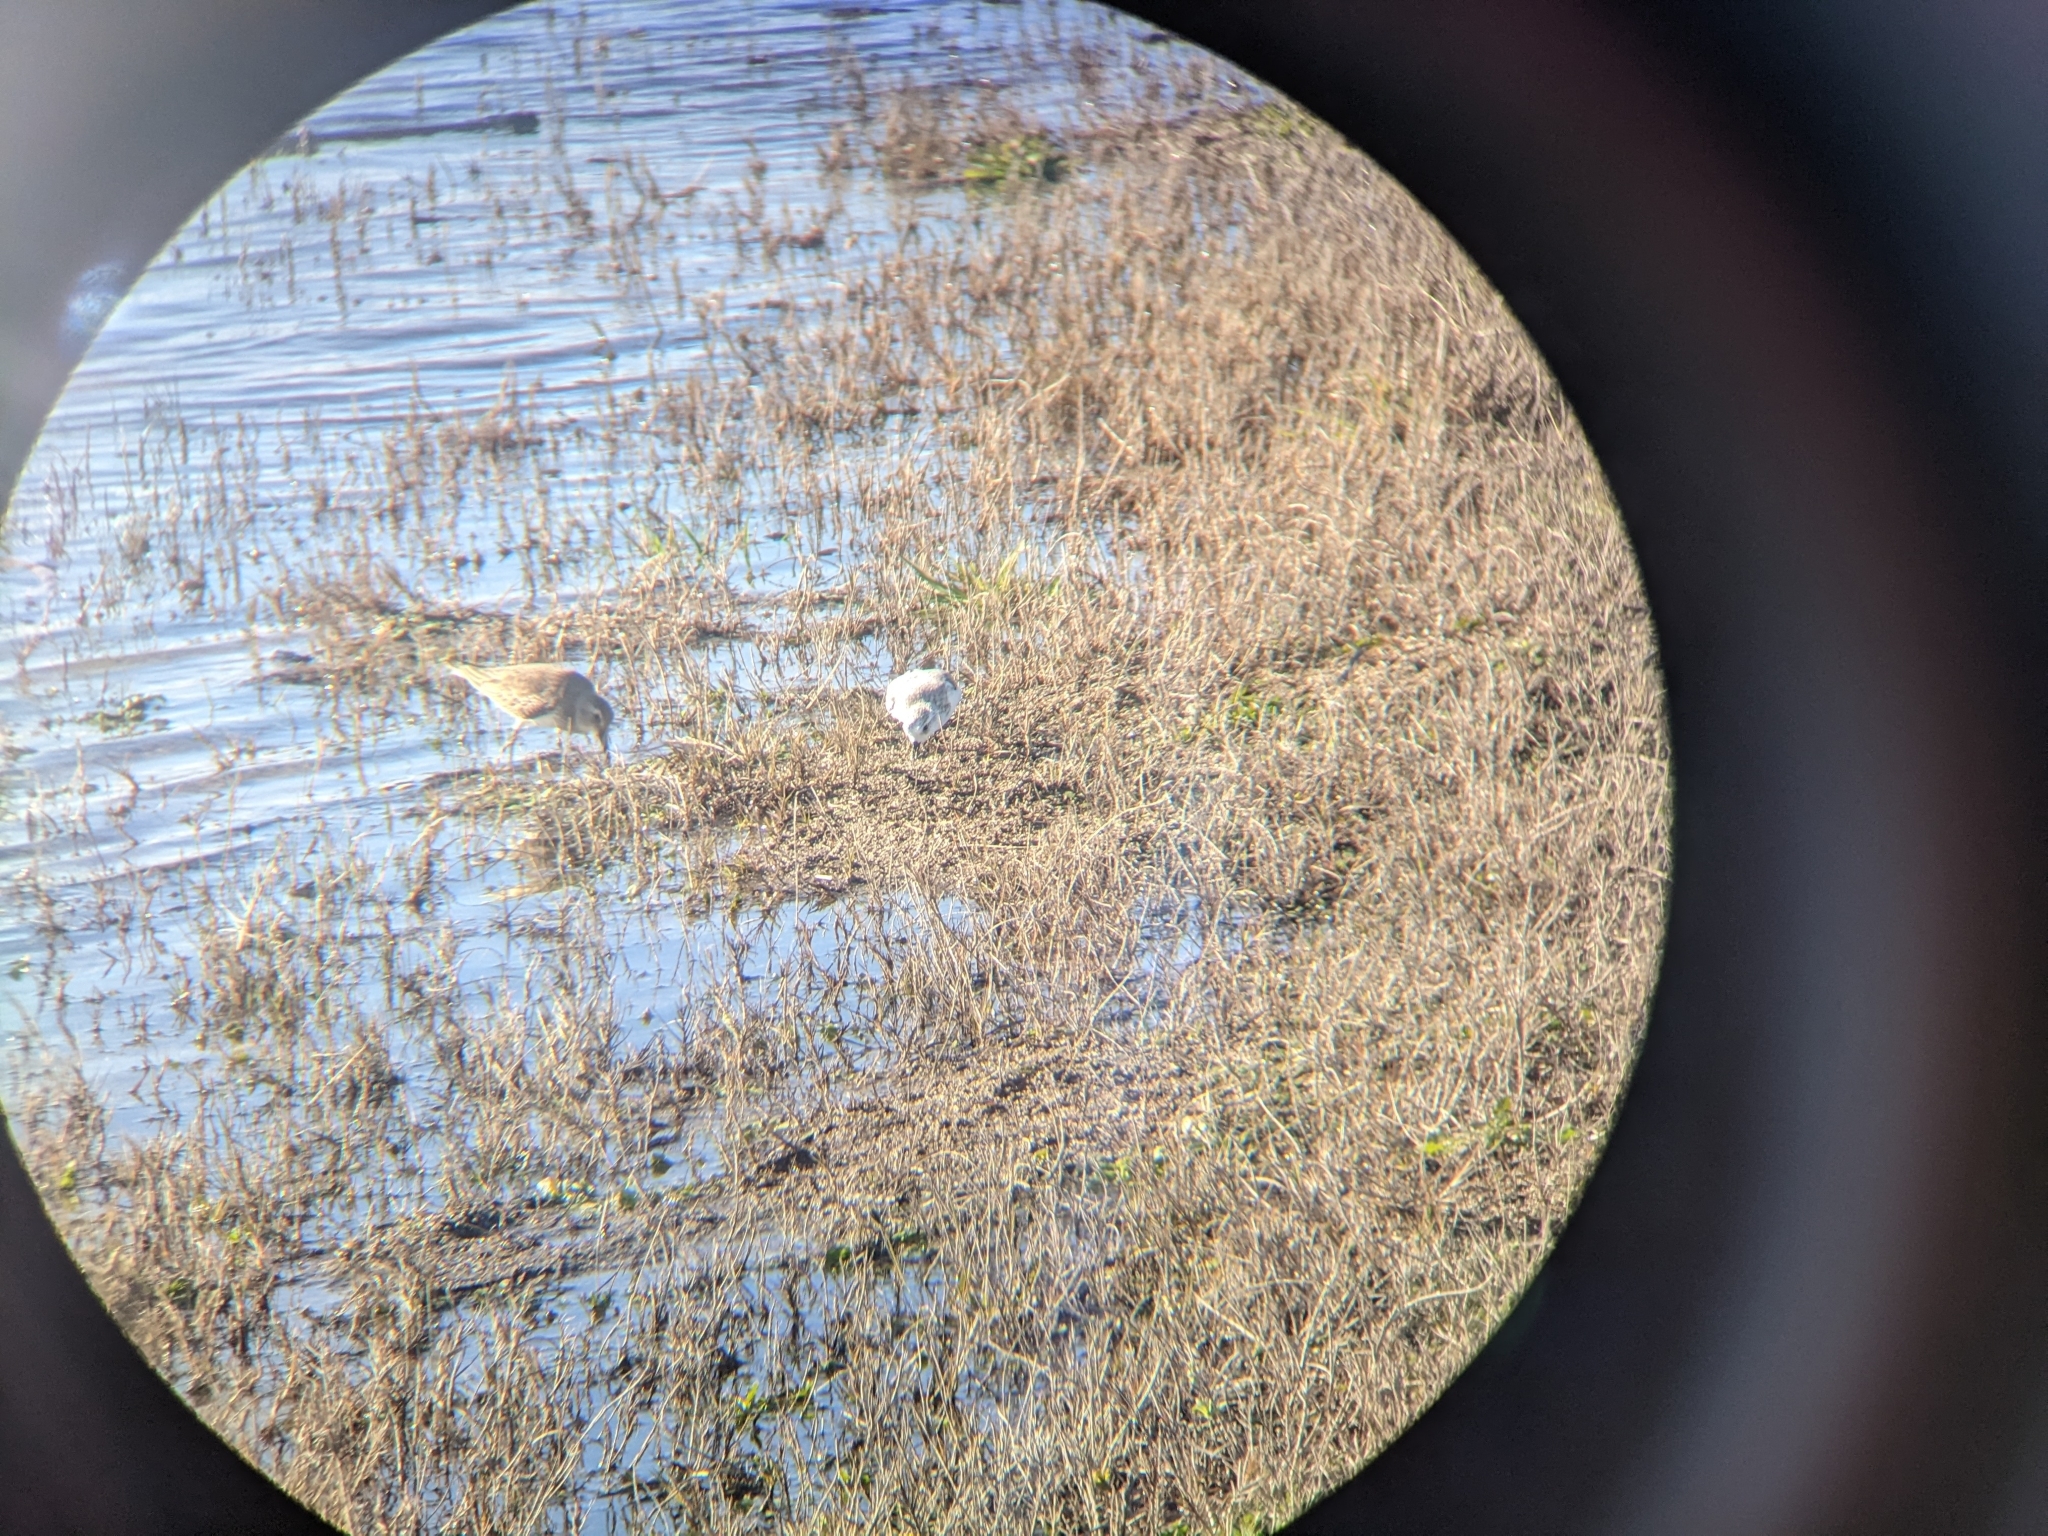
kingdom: Animalia
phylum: Chordata
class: Aves
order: Charadriiformes
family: Scolopacidae
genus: Calidris
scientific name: Calidris alpina
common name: Dunlin
